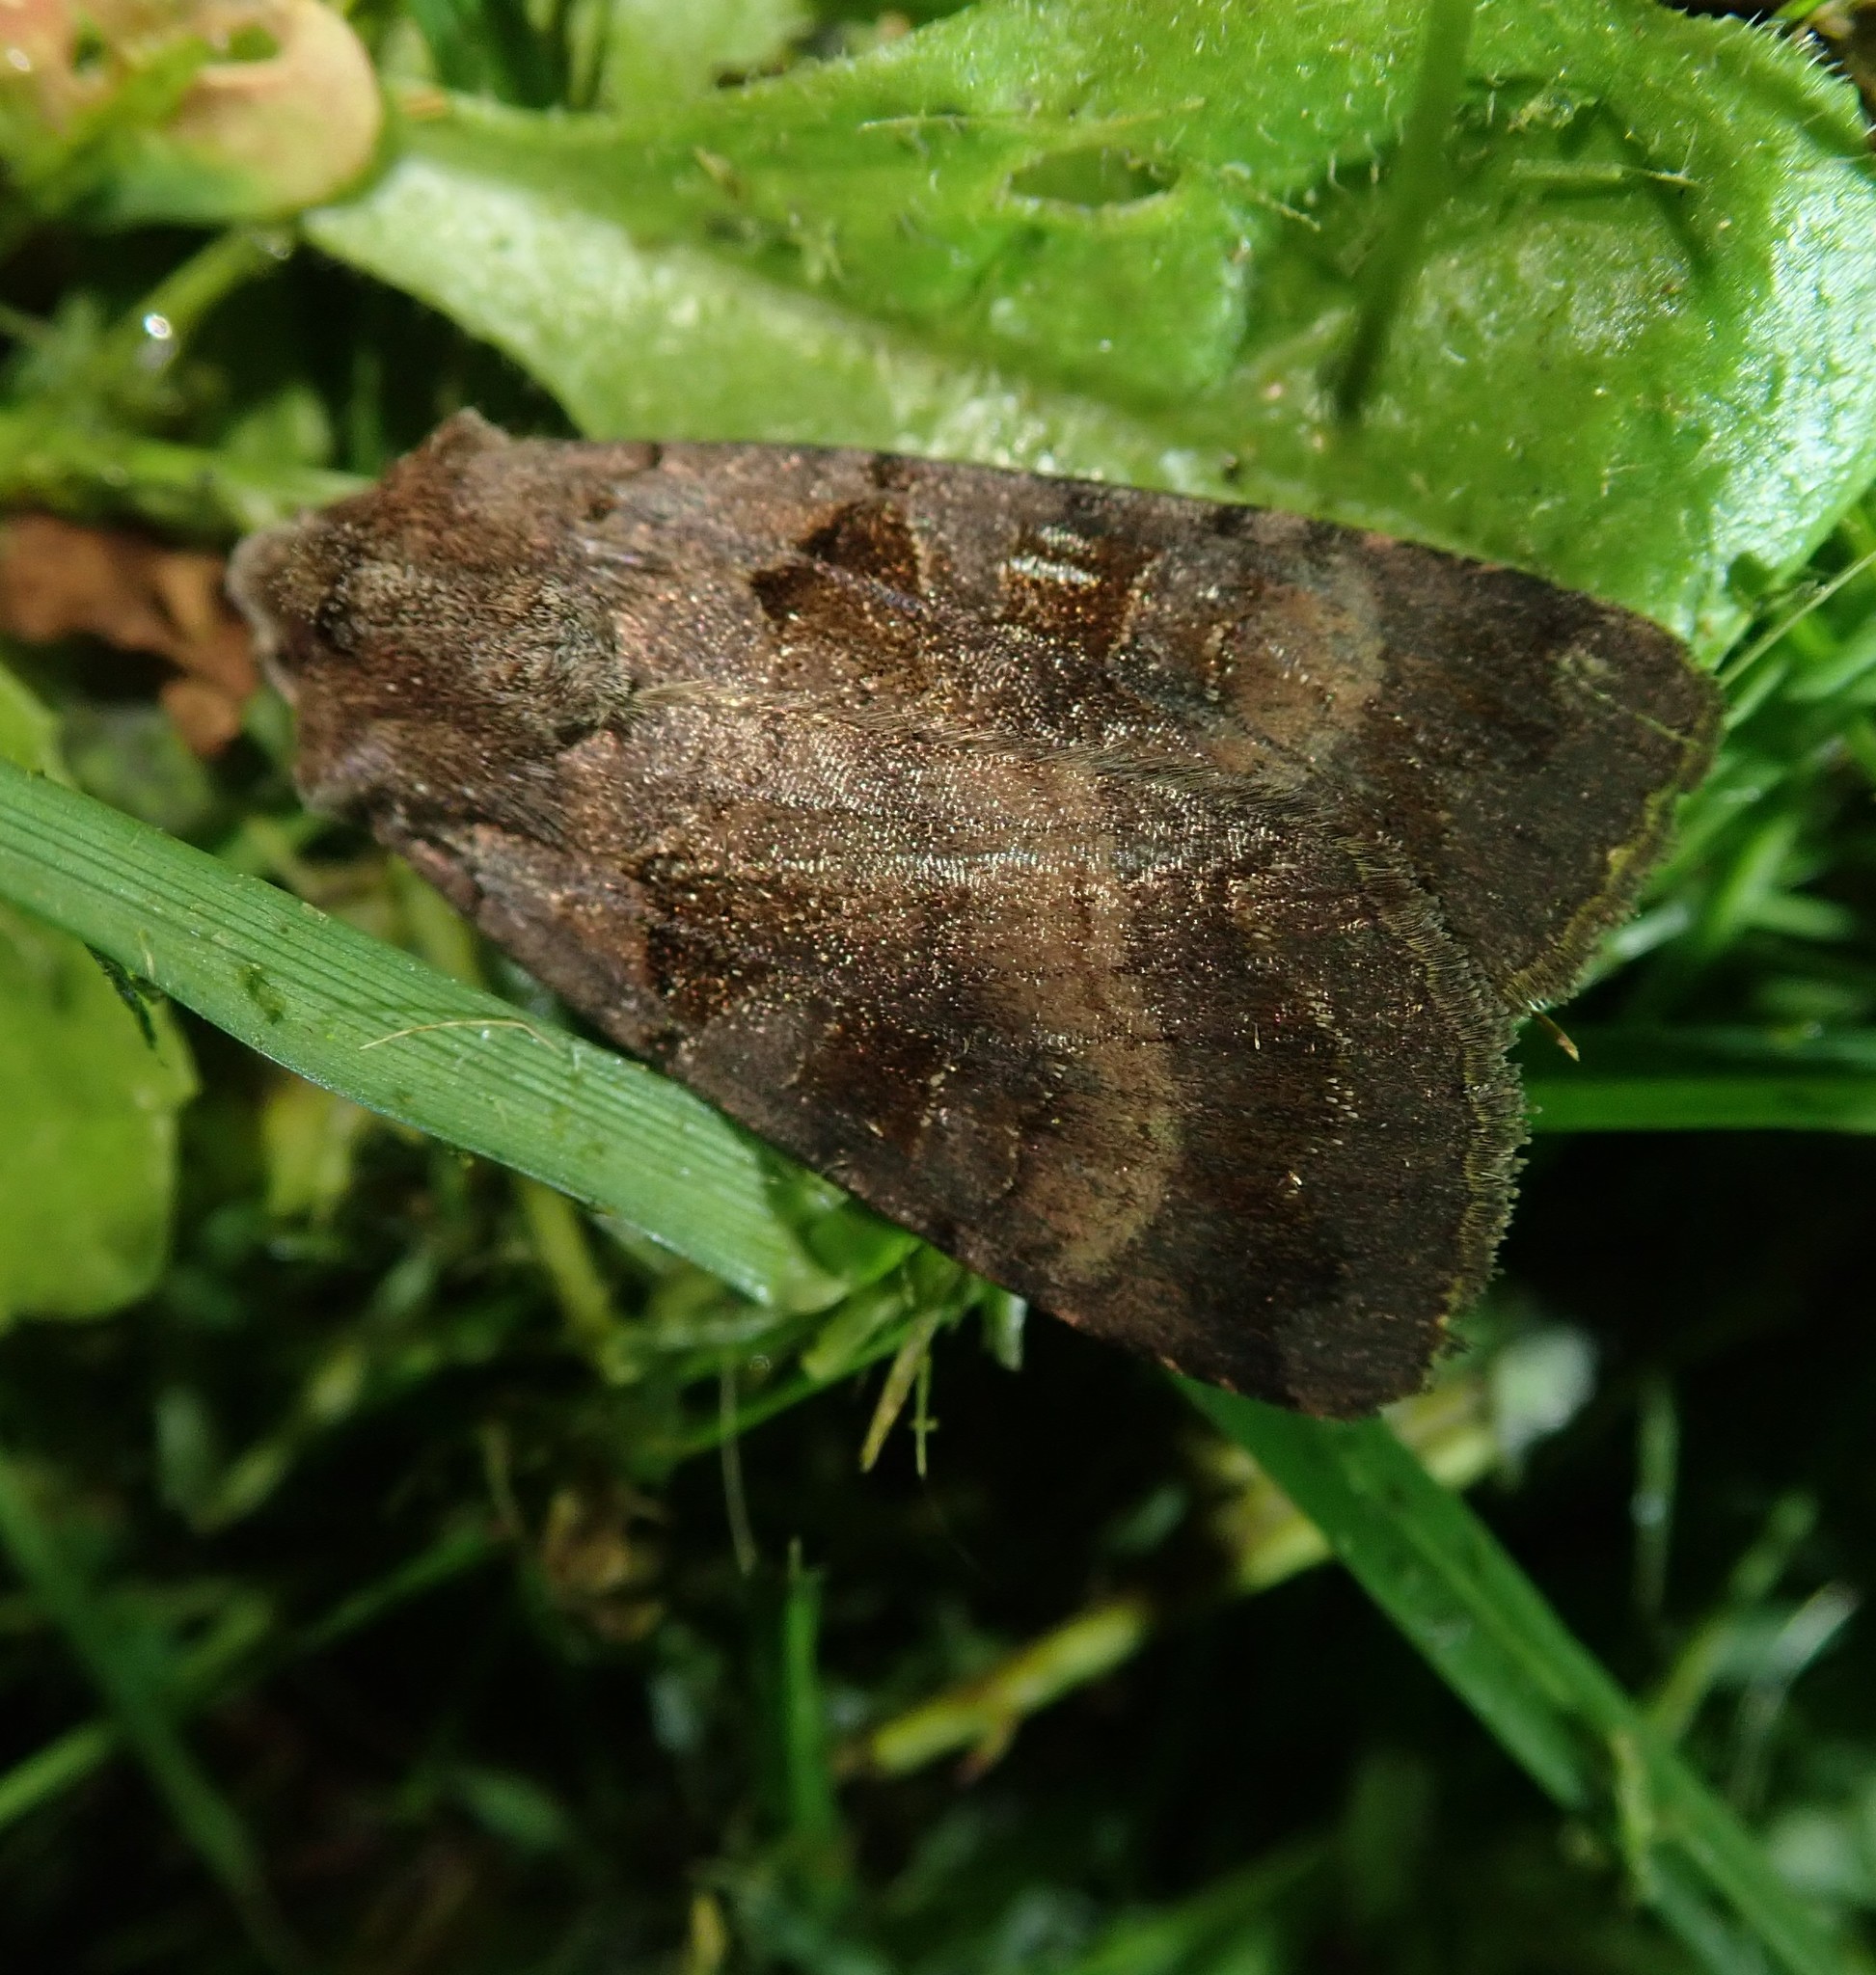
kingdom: Animalia
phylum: Arthropoda
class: Insecta
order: Lepidoptera
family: Noctuidae
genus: Xestia
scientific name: Xestia stigmatica
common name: Square-spotted clay
